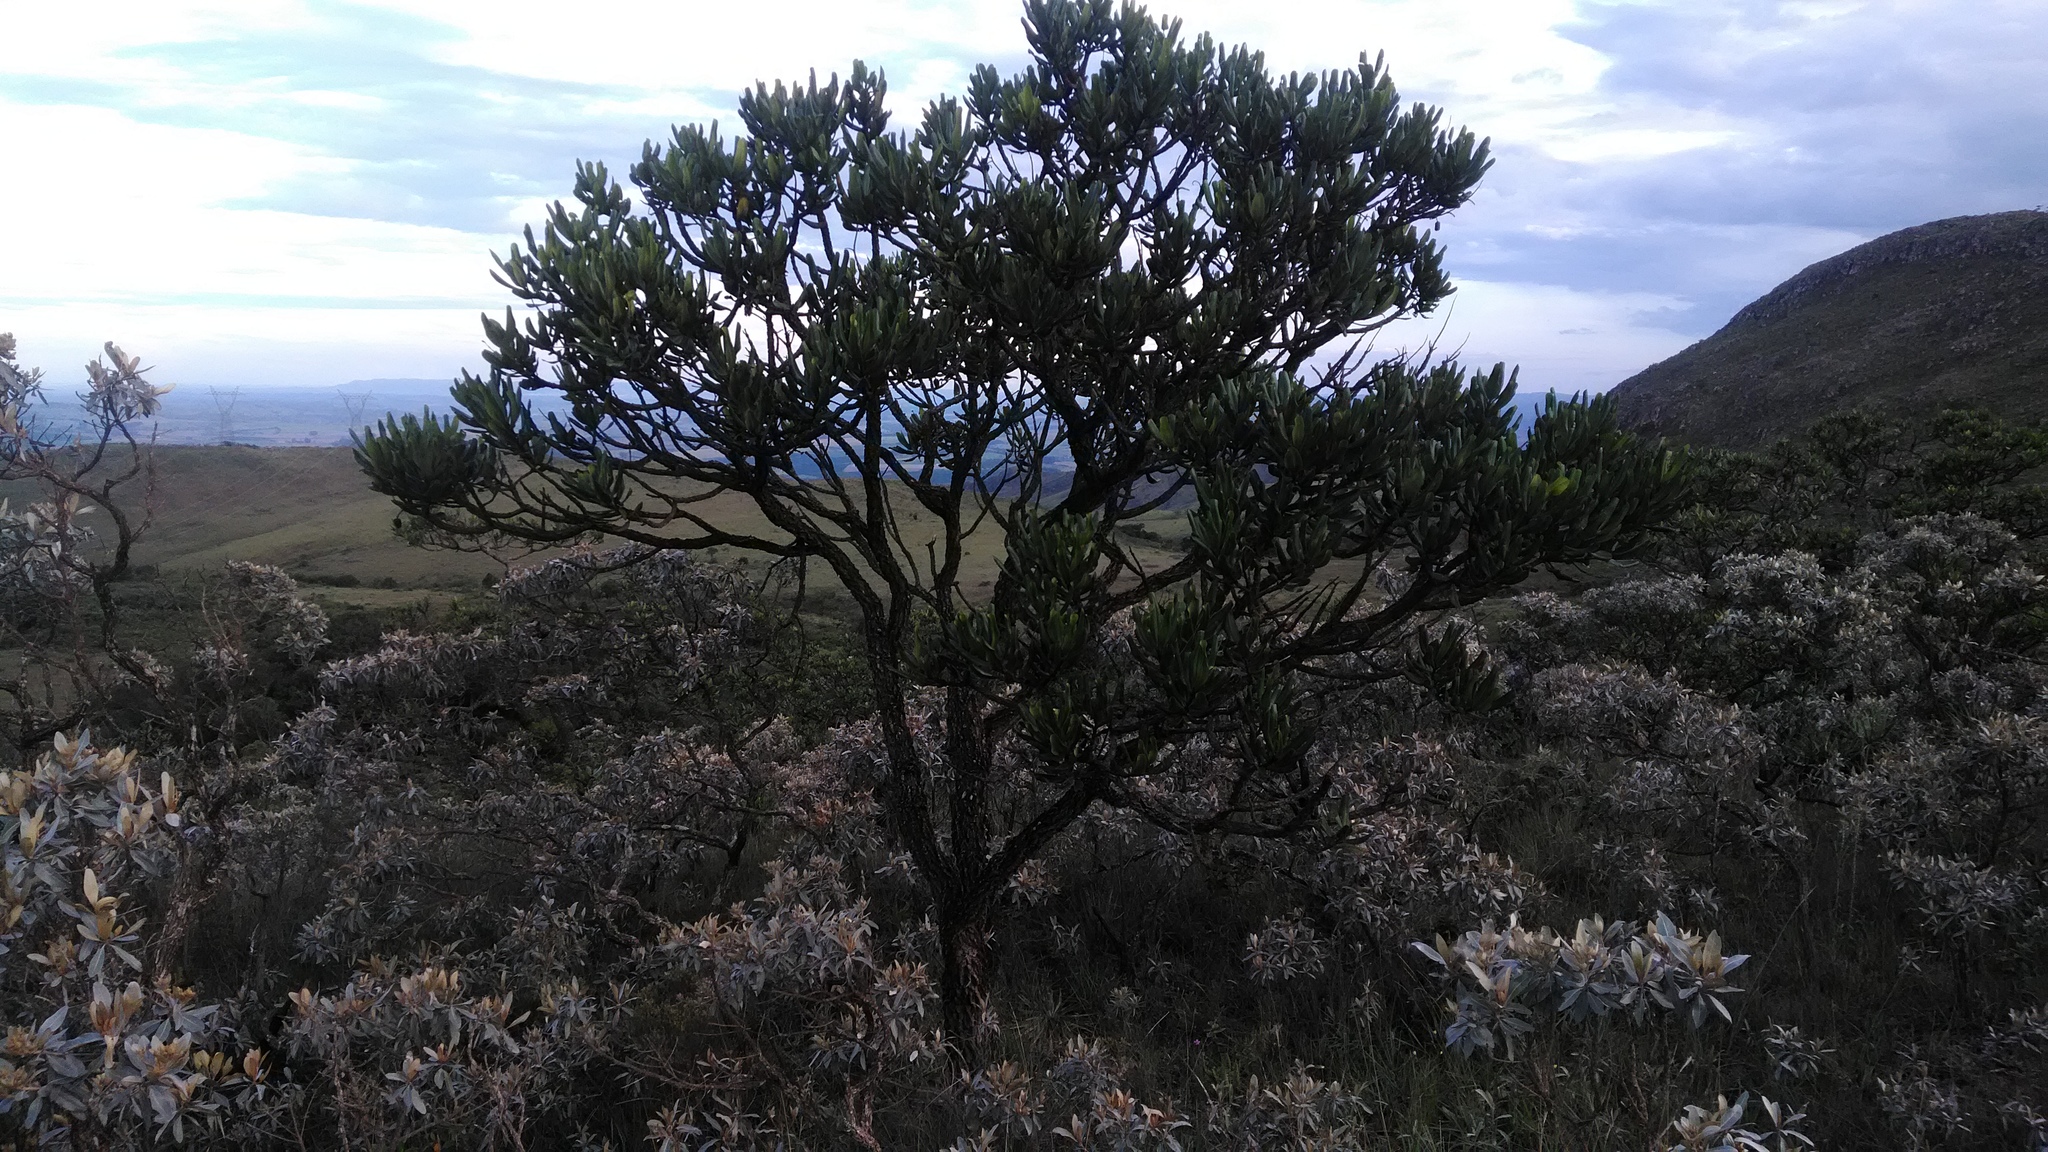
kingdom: Plantae
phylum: Tracheophyta
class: Magnoliopsida
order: Myrtales
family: Vochysiaceae
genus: Vochysia
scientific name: Vochysia thyrsoidea
